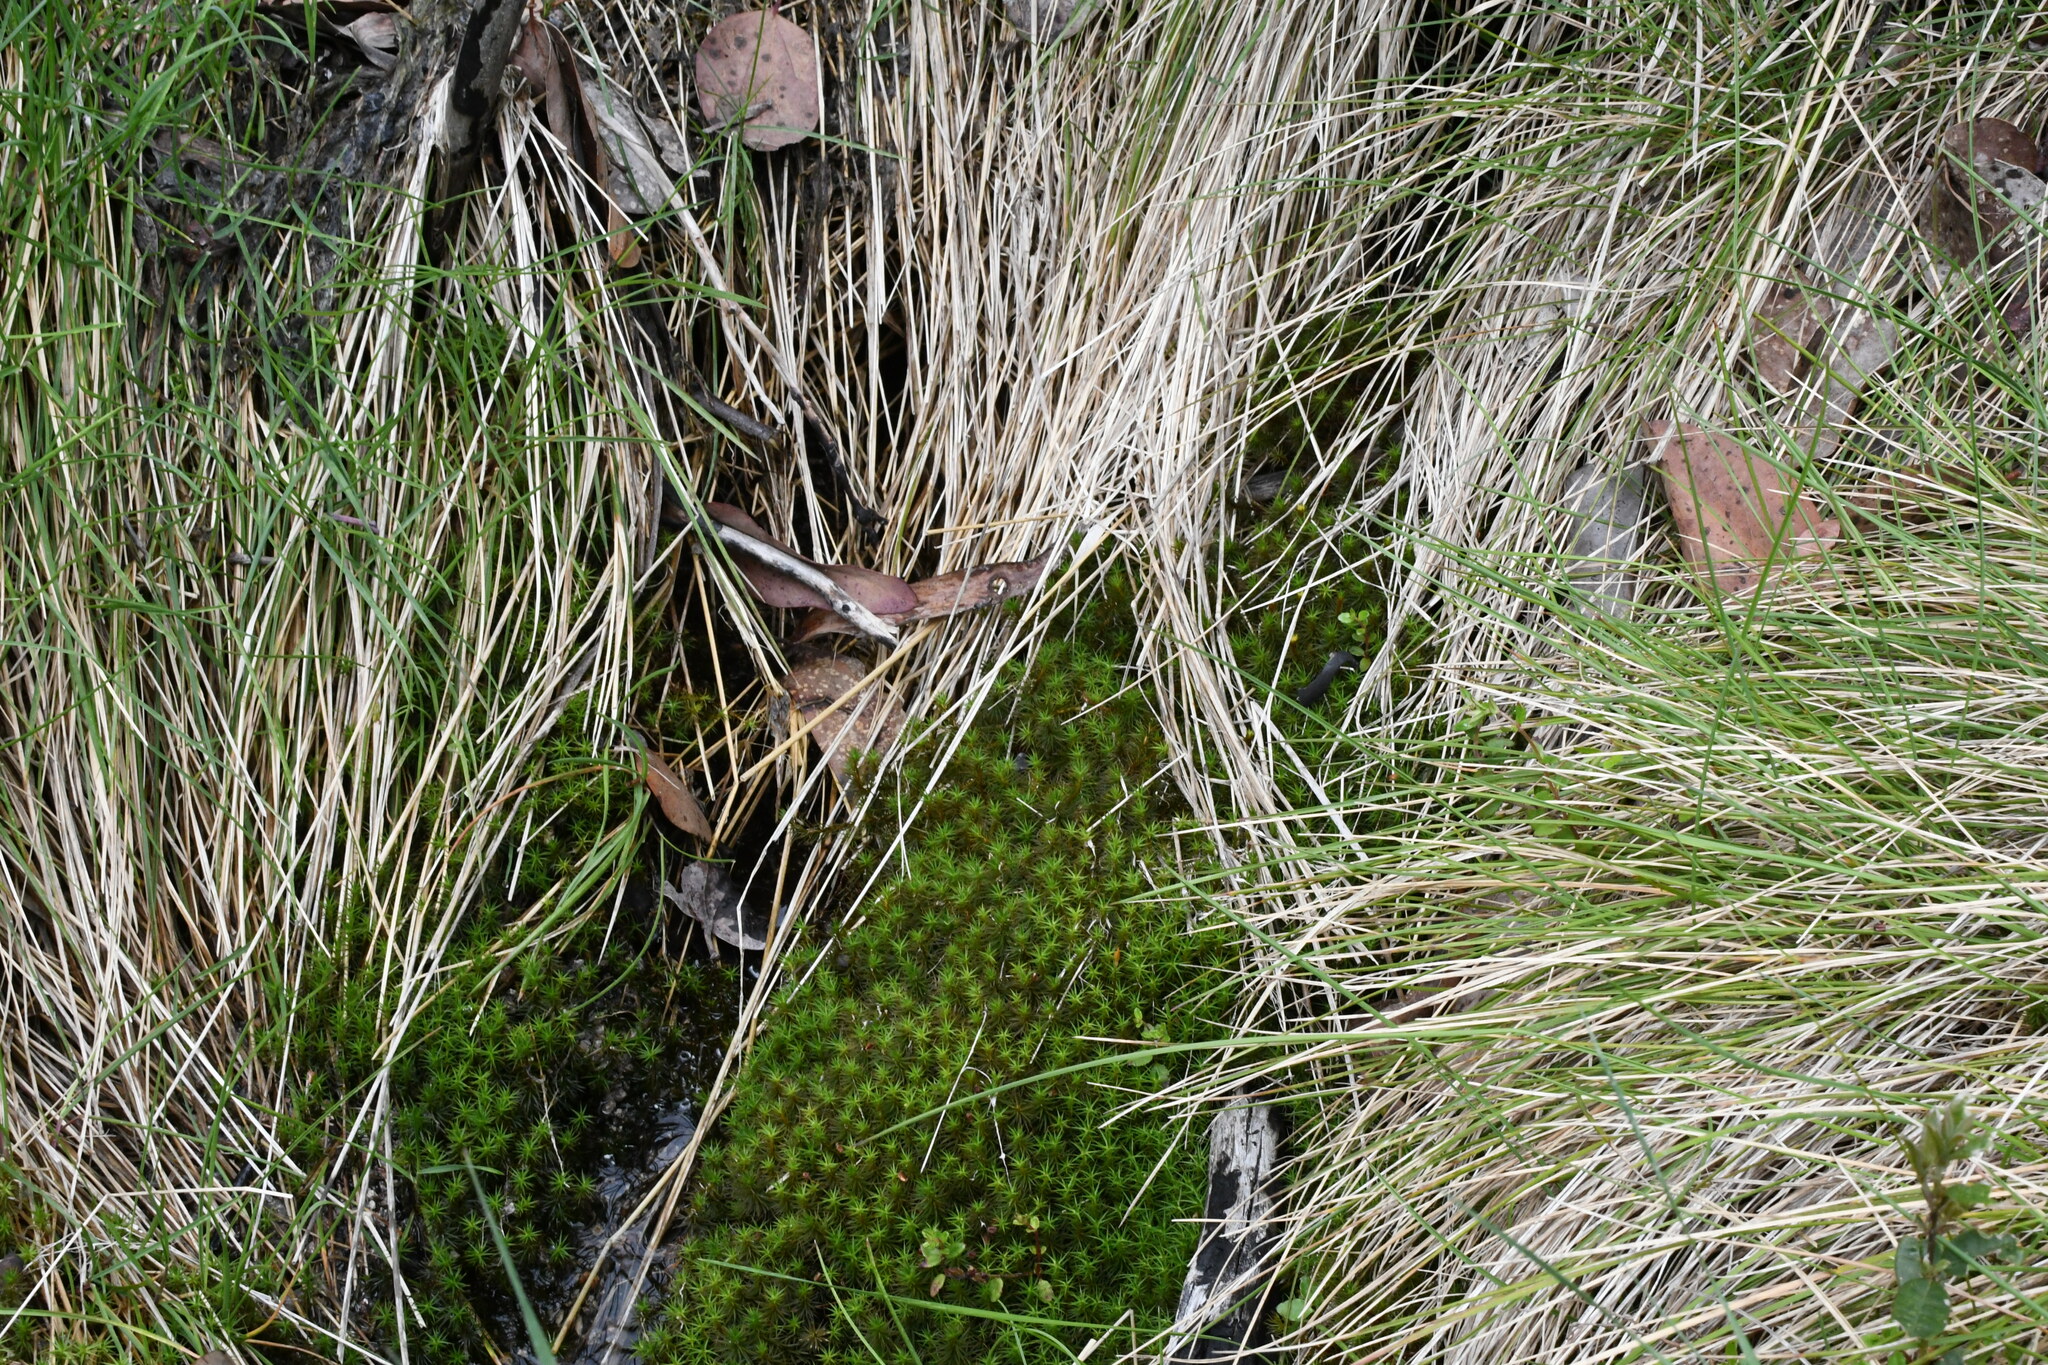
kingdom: Plantae
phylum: Bryophyta
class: Polytrichopsida
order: Polytrichales
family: Polytrichaceae
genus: Polytrichum
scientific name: Polytrichum commune
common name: Common haircap
